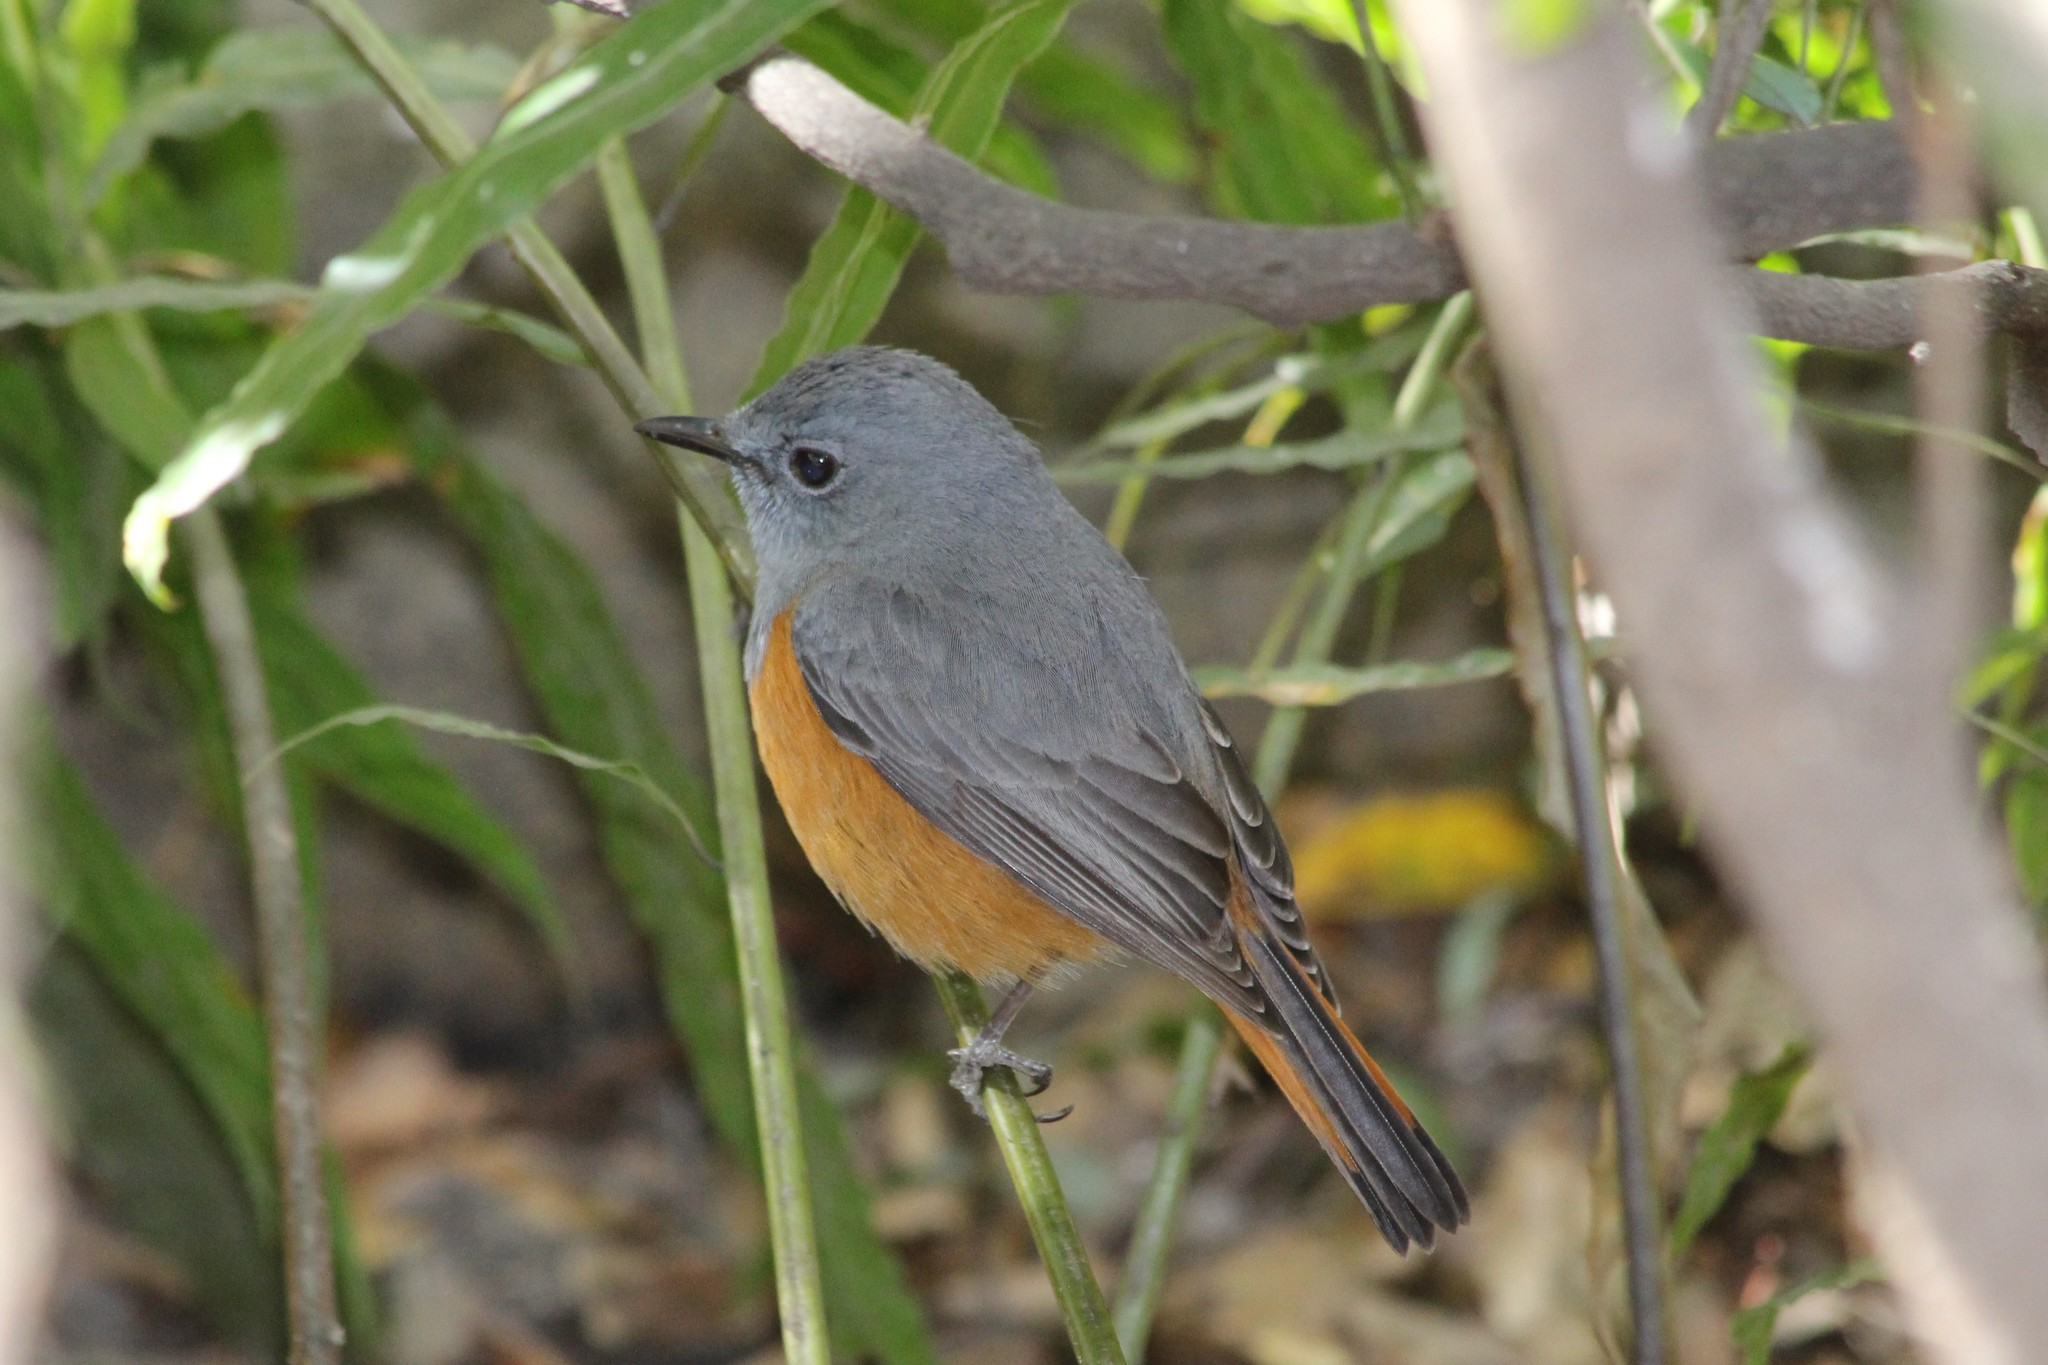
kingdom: Animalia
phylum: Chordata
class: Aves
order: Passeriformes
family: Muscicapidae
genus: Monticola
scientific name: Monticola sharpei
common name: Forest rock-thrush
